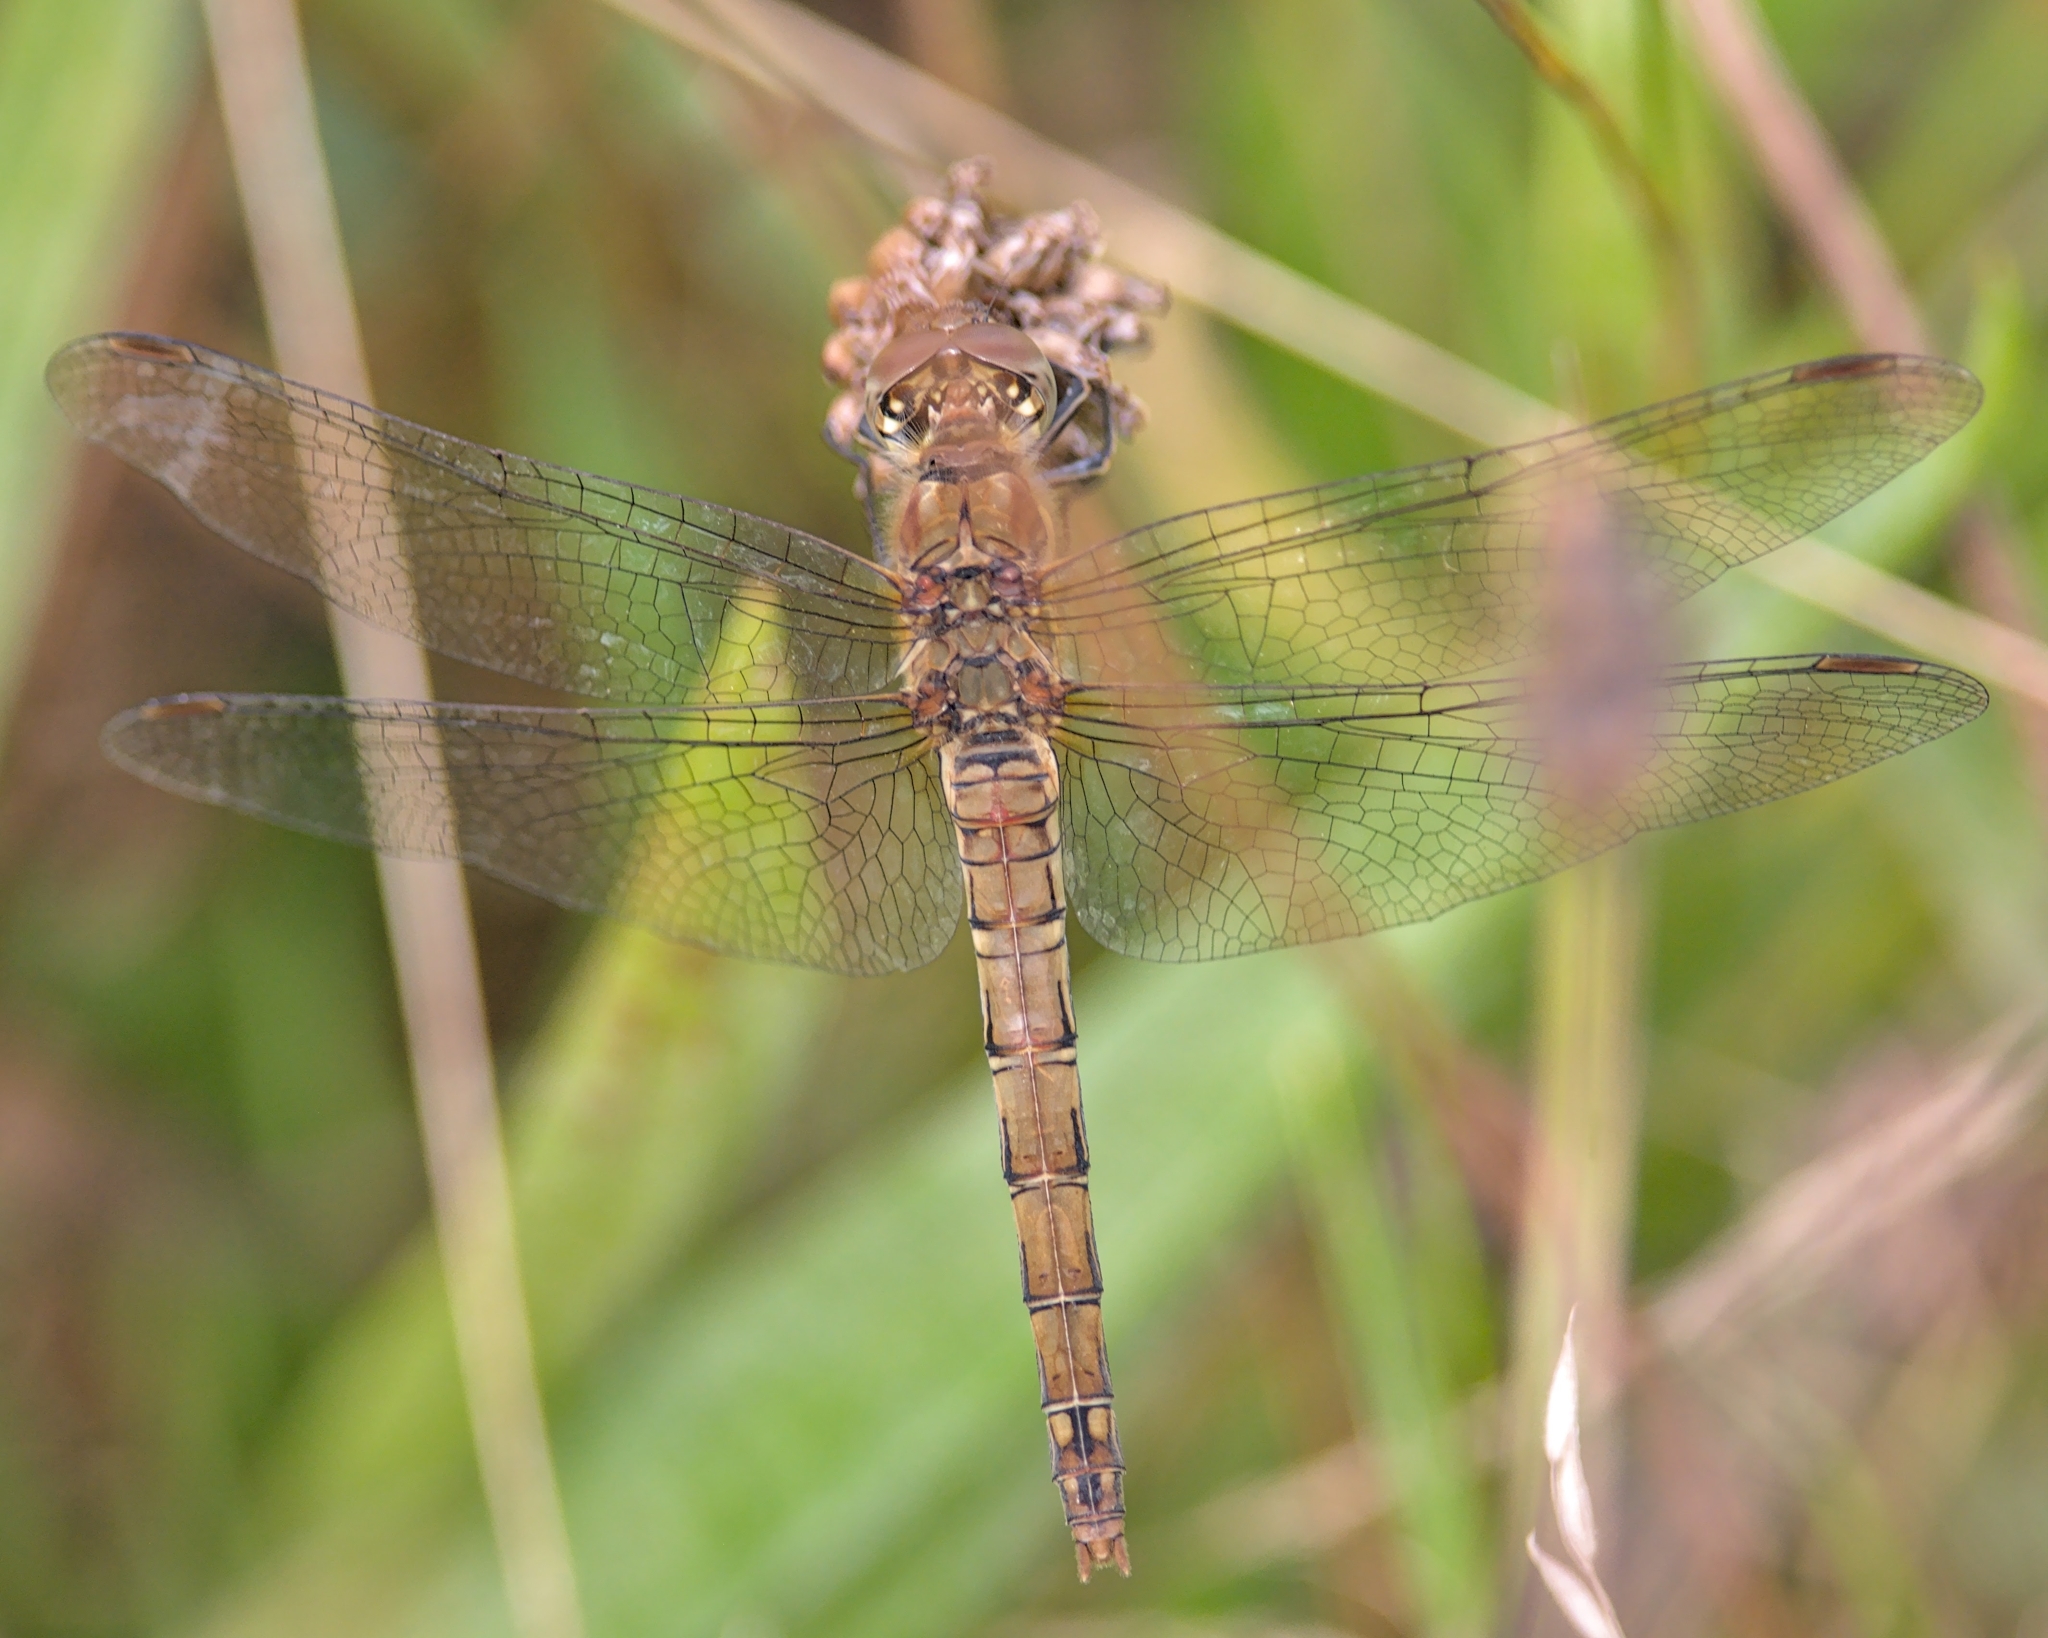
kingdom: Animalia
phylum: Arthropoda
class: Insecta
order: Odonata
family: Libellulidae
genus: Sympetrum
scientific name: Sympetrum striolatum
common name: Common darter
